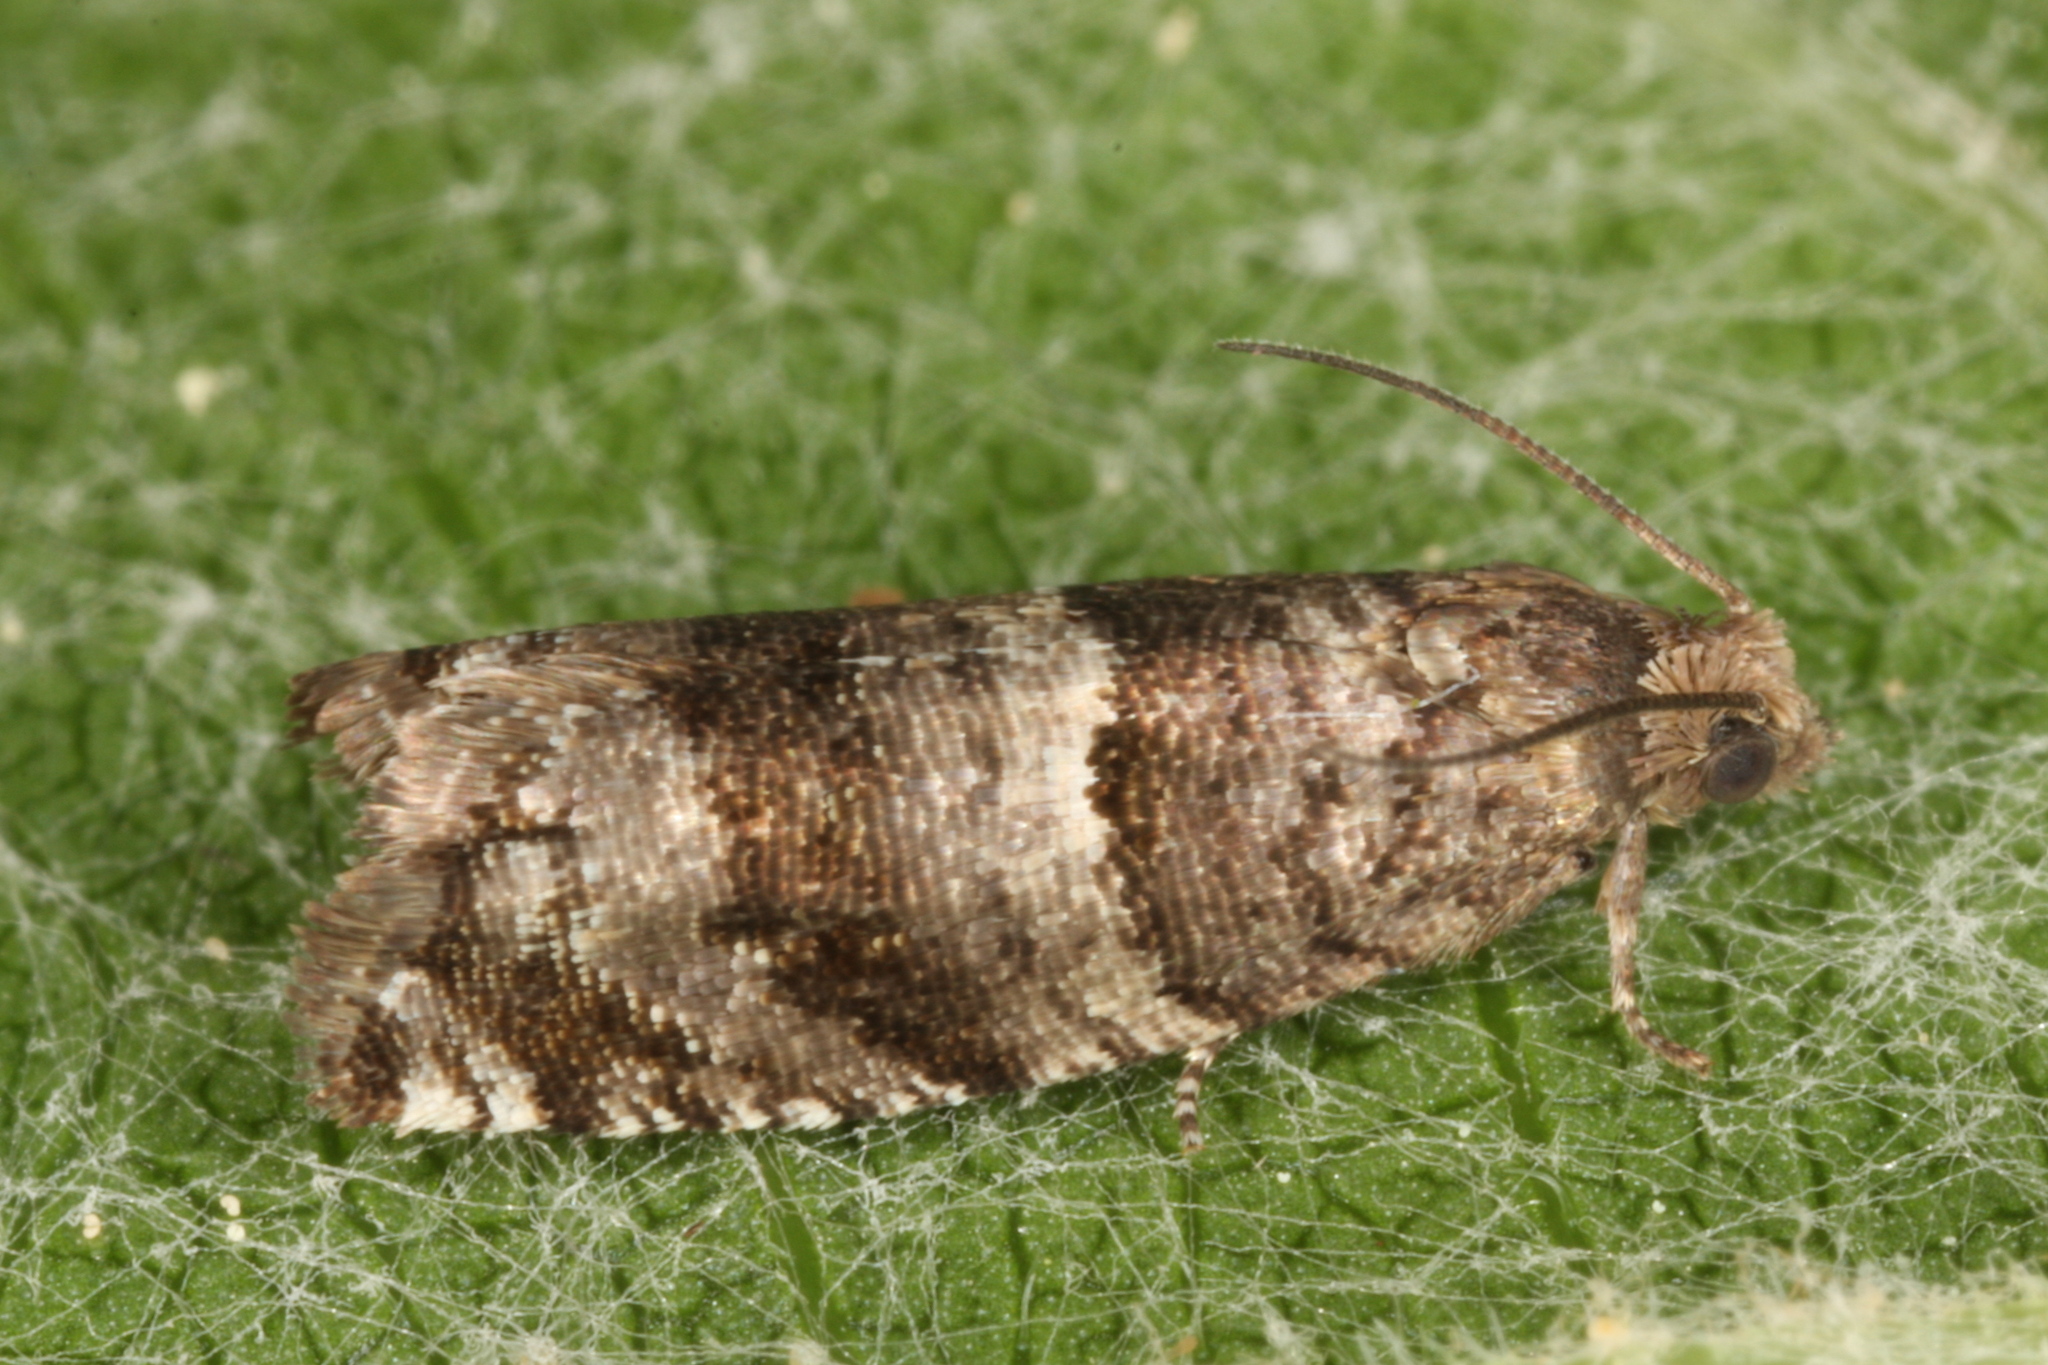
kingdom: Animalia
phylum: Arthropoda
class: Insecta
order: Lepidoptera
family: Tortricidae
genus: Rhopobota
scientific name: Rhopobota myrtillana
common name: Bilberry bell
